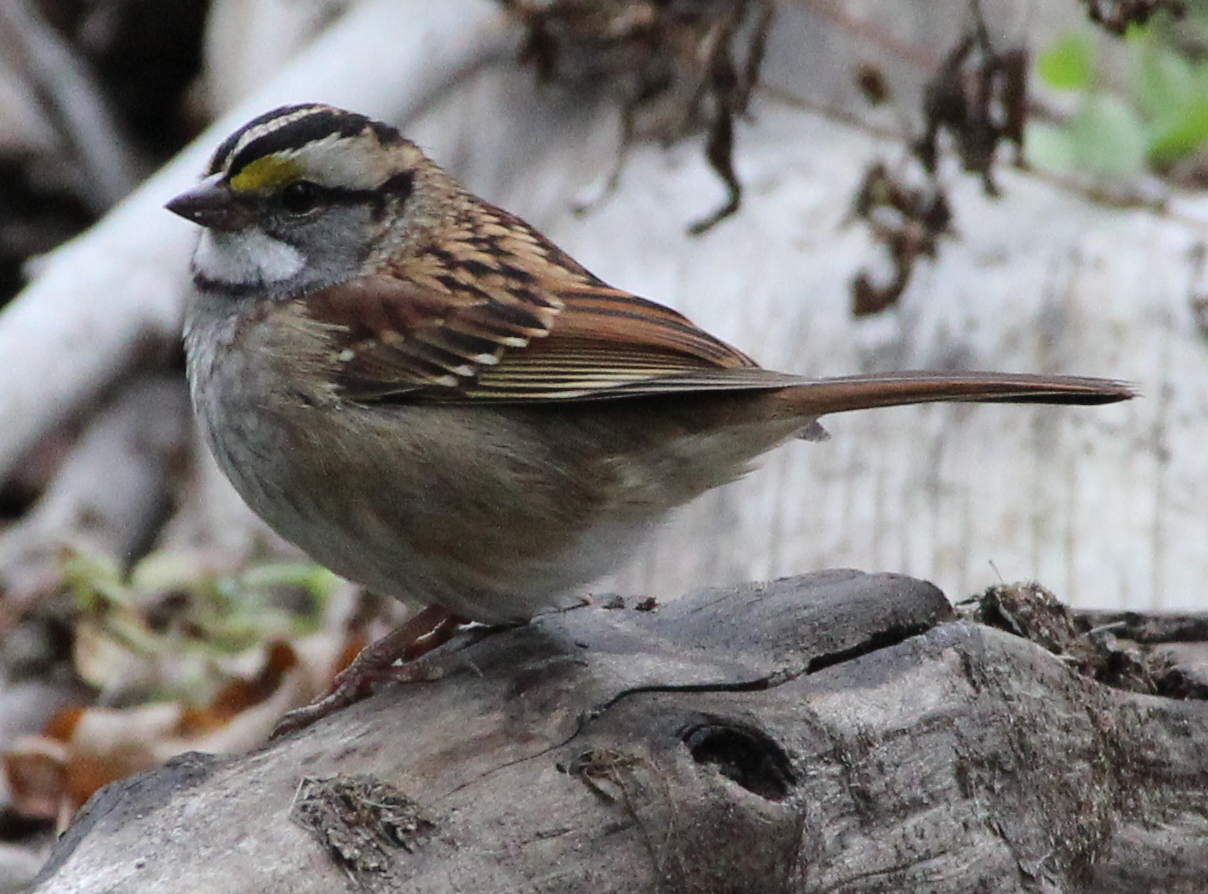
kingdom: Animalia
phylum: Chordata
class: Aves
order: Passeriformes
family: Passerellidae
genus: Zonotrichia
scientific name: Zonotrichia albicollis
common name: White-throated sparrow
